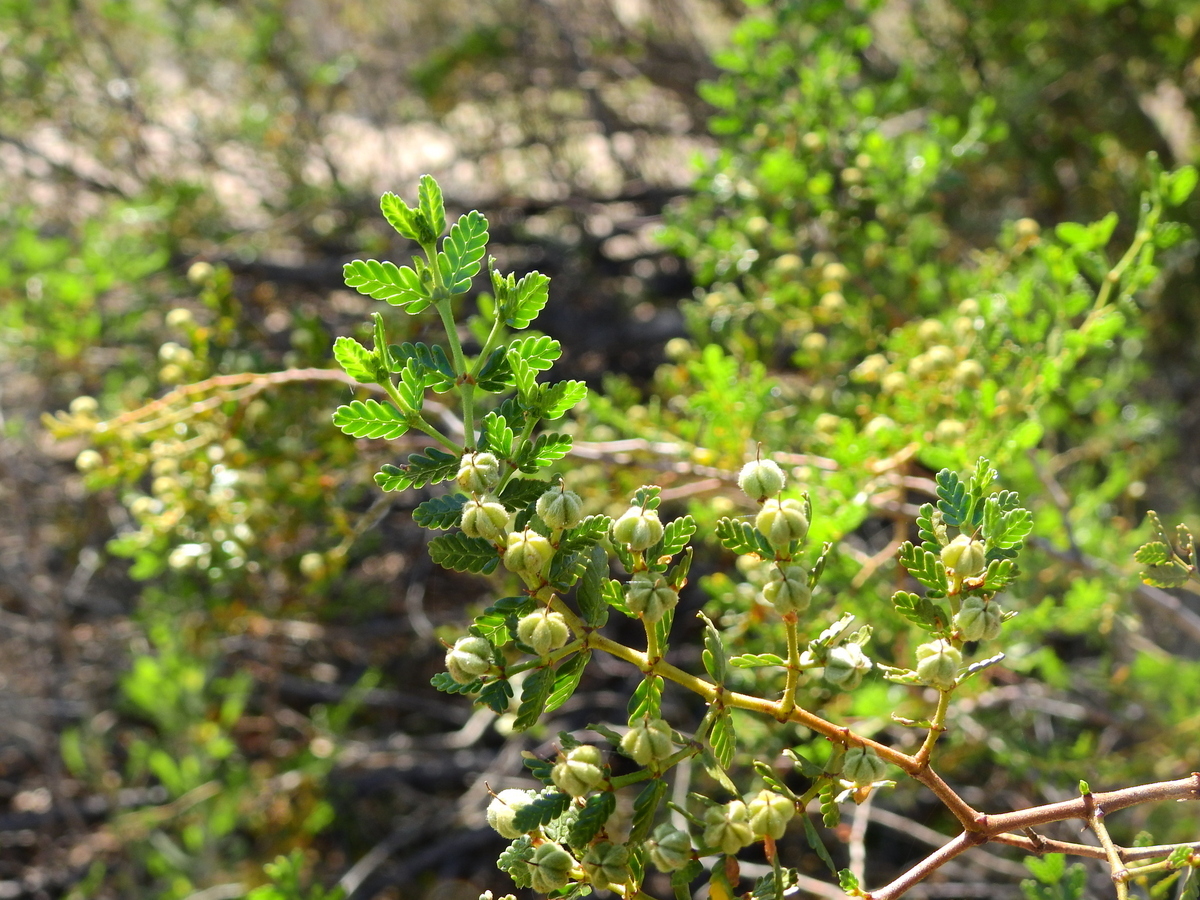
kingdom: Plantae
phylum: Tracheophyta
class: Magnoliopsida
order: Zygophyllales
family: Zygophyllaceae
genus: Larrea
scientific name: Larrea nitida
